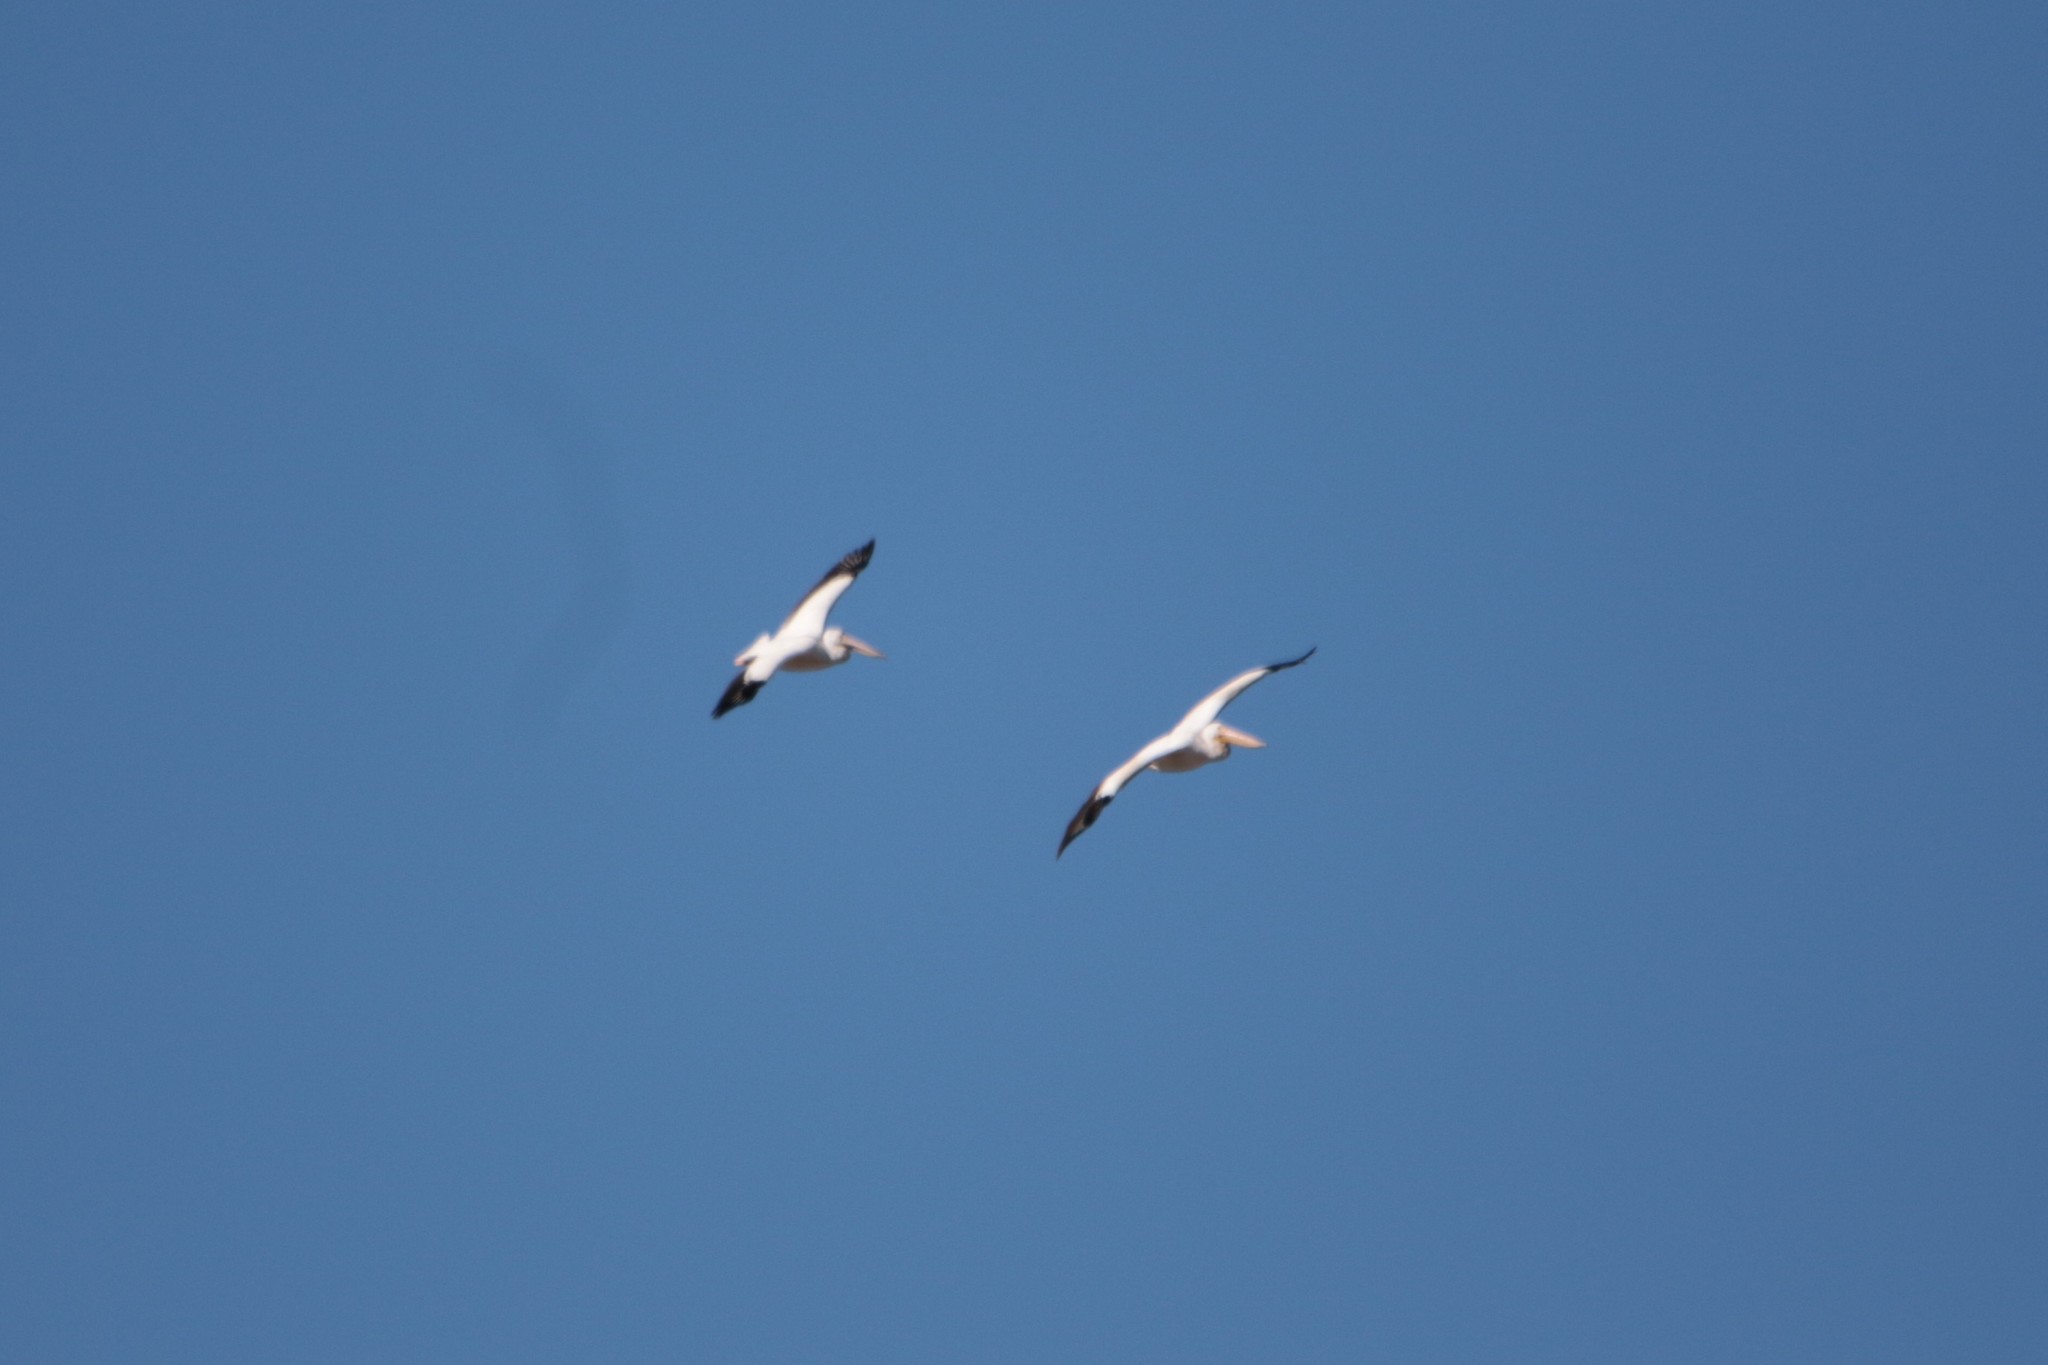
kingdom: Animalia
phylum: Chordata
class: Aves
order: Pelecaniformes
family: Pelecanidae
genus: Pelecanus
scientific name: Pelecanus erythrorhynchos
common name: American white pelican
